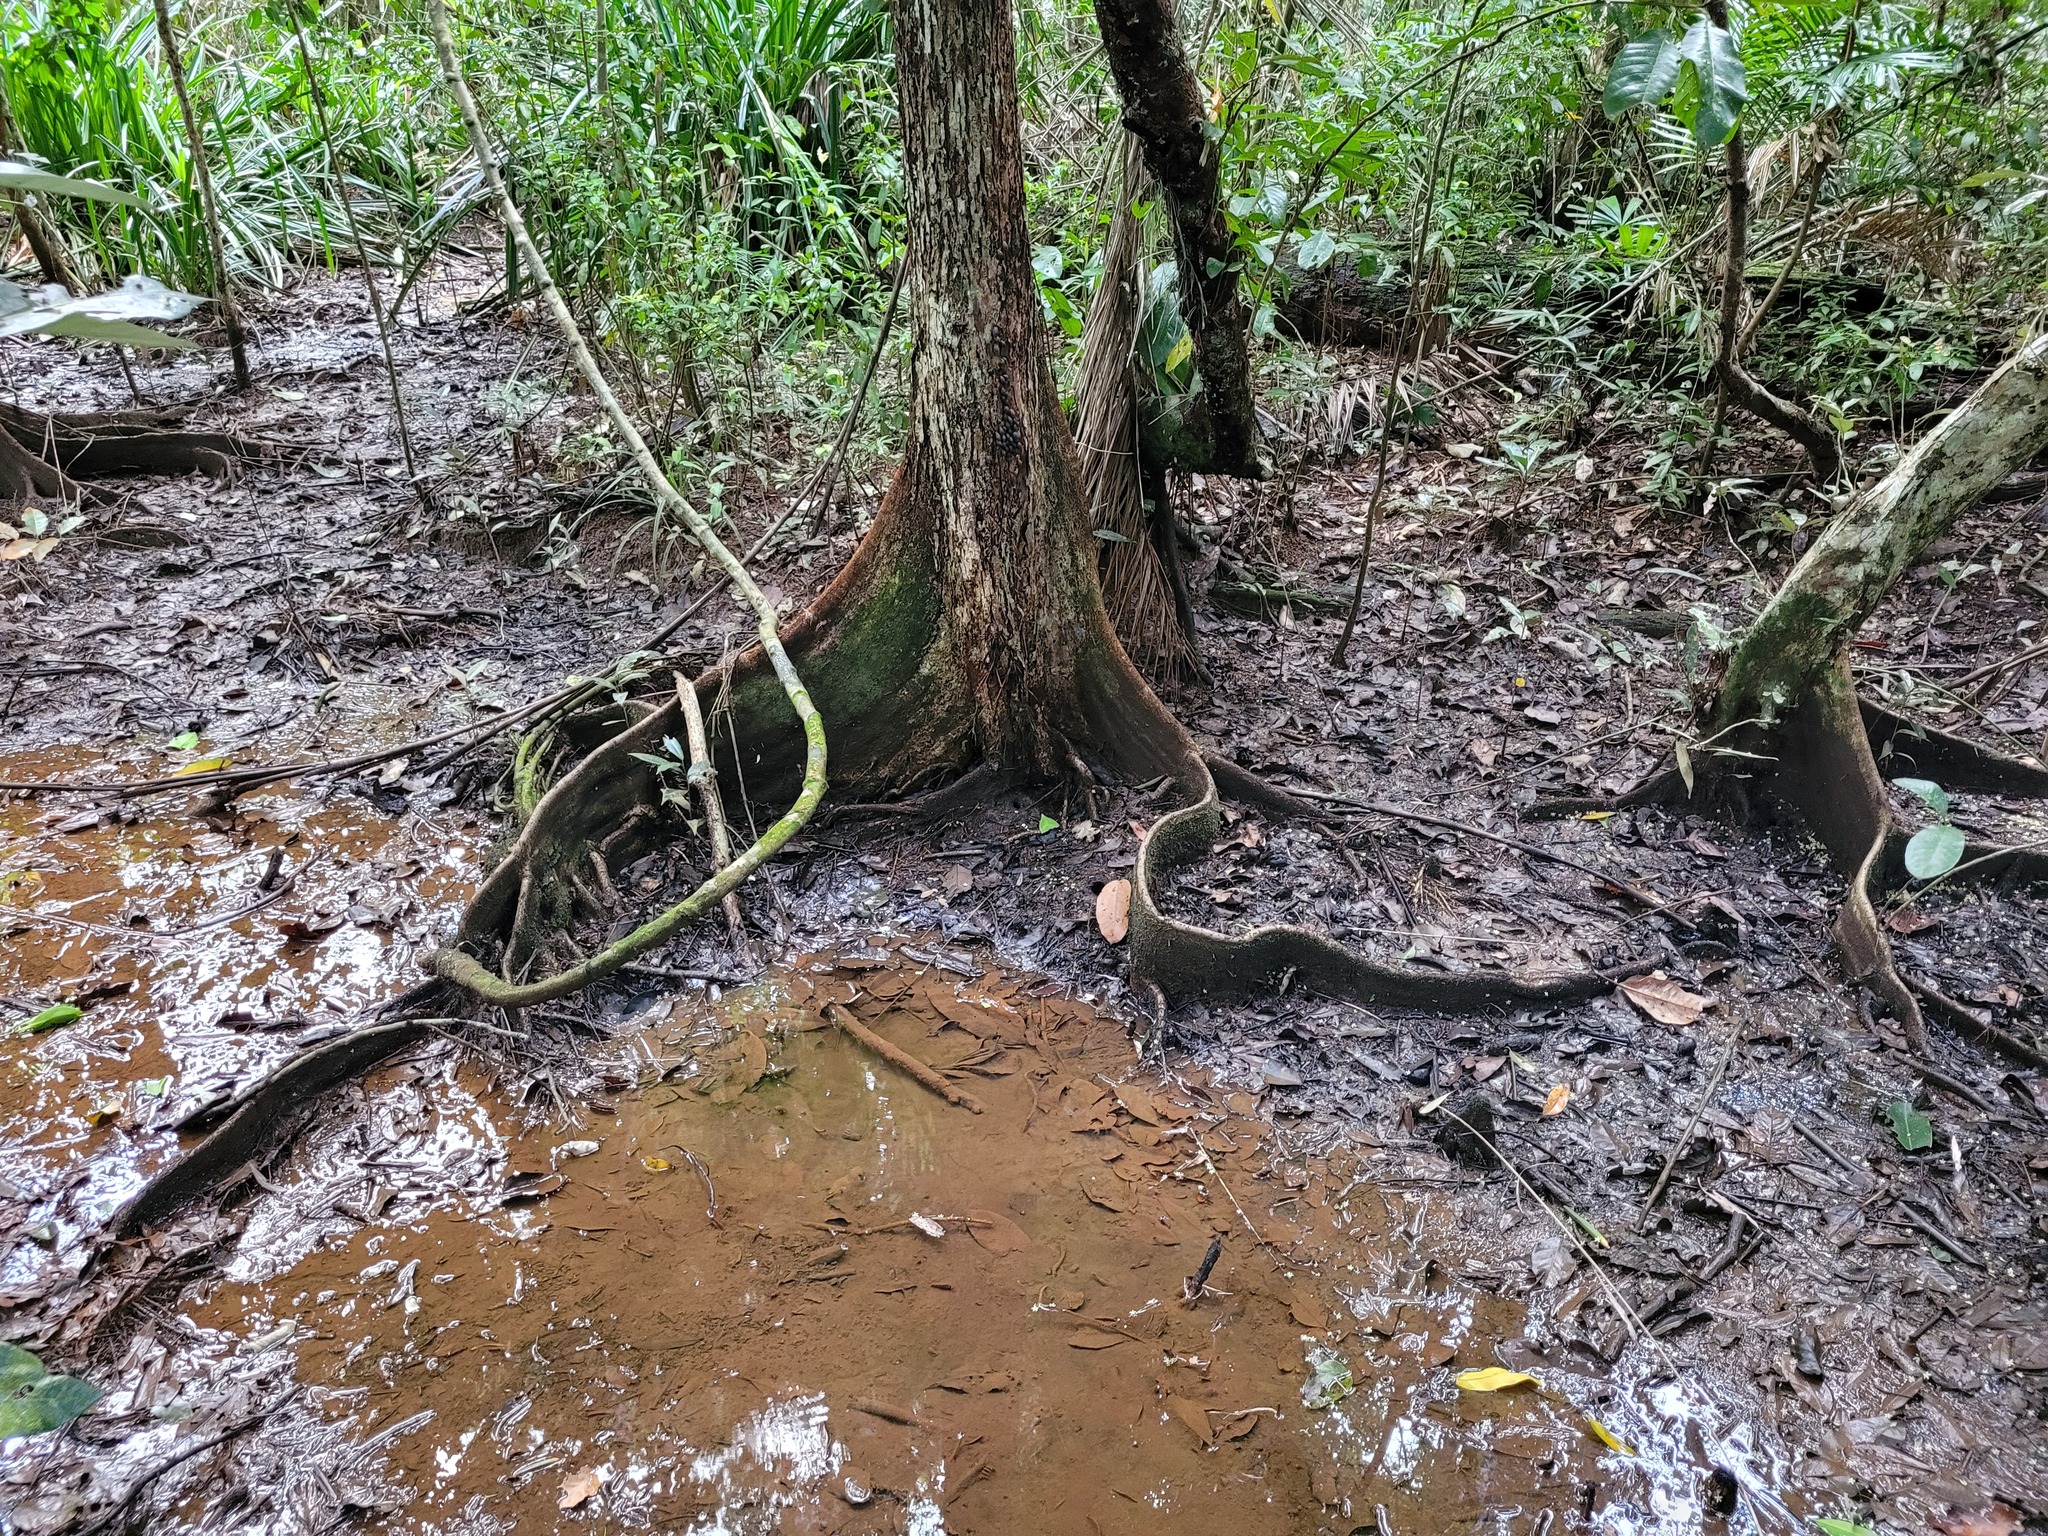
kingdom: Plantae
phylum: Tracheophyta
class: Magnoliopsida
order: Malvales
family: Malvaceae
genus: Heritiera
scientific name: Heritiera littoralis
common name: Looking-glass mangrove
